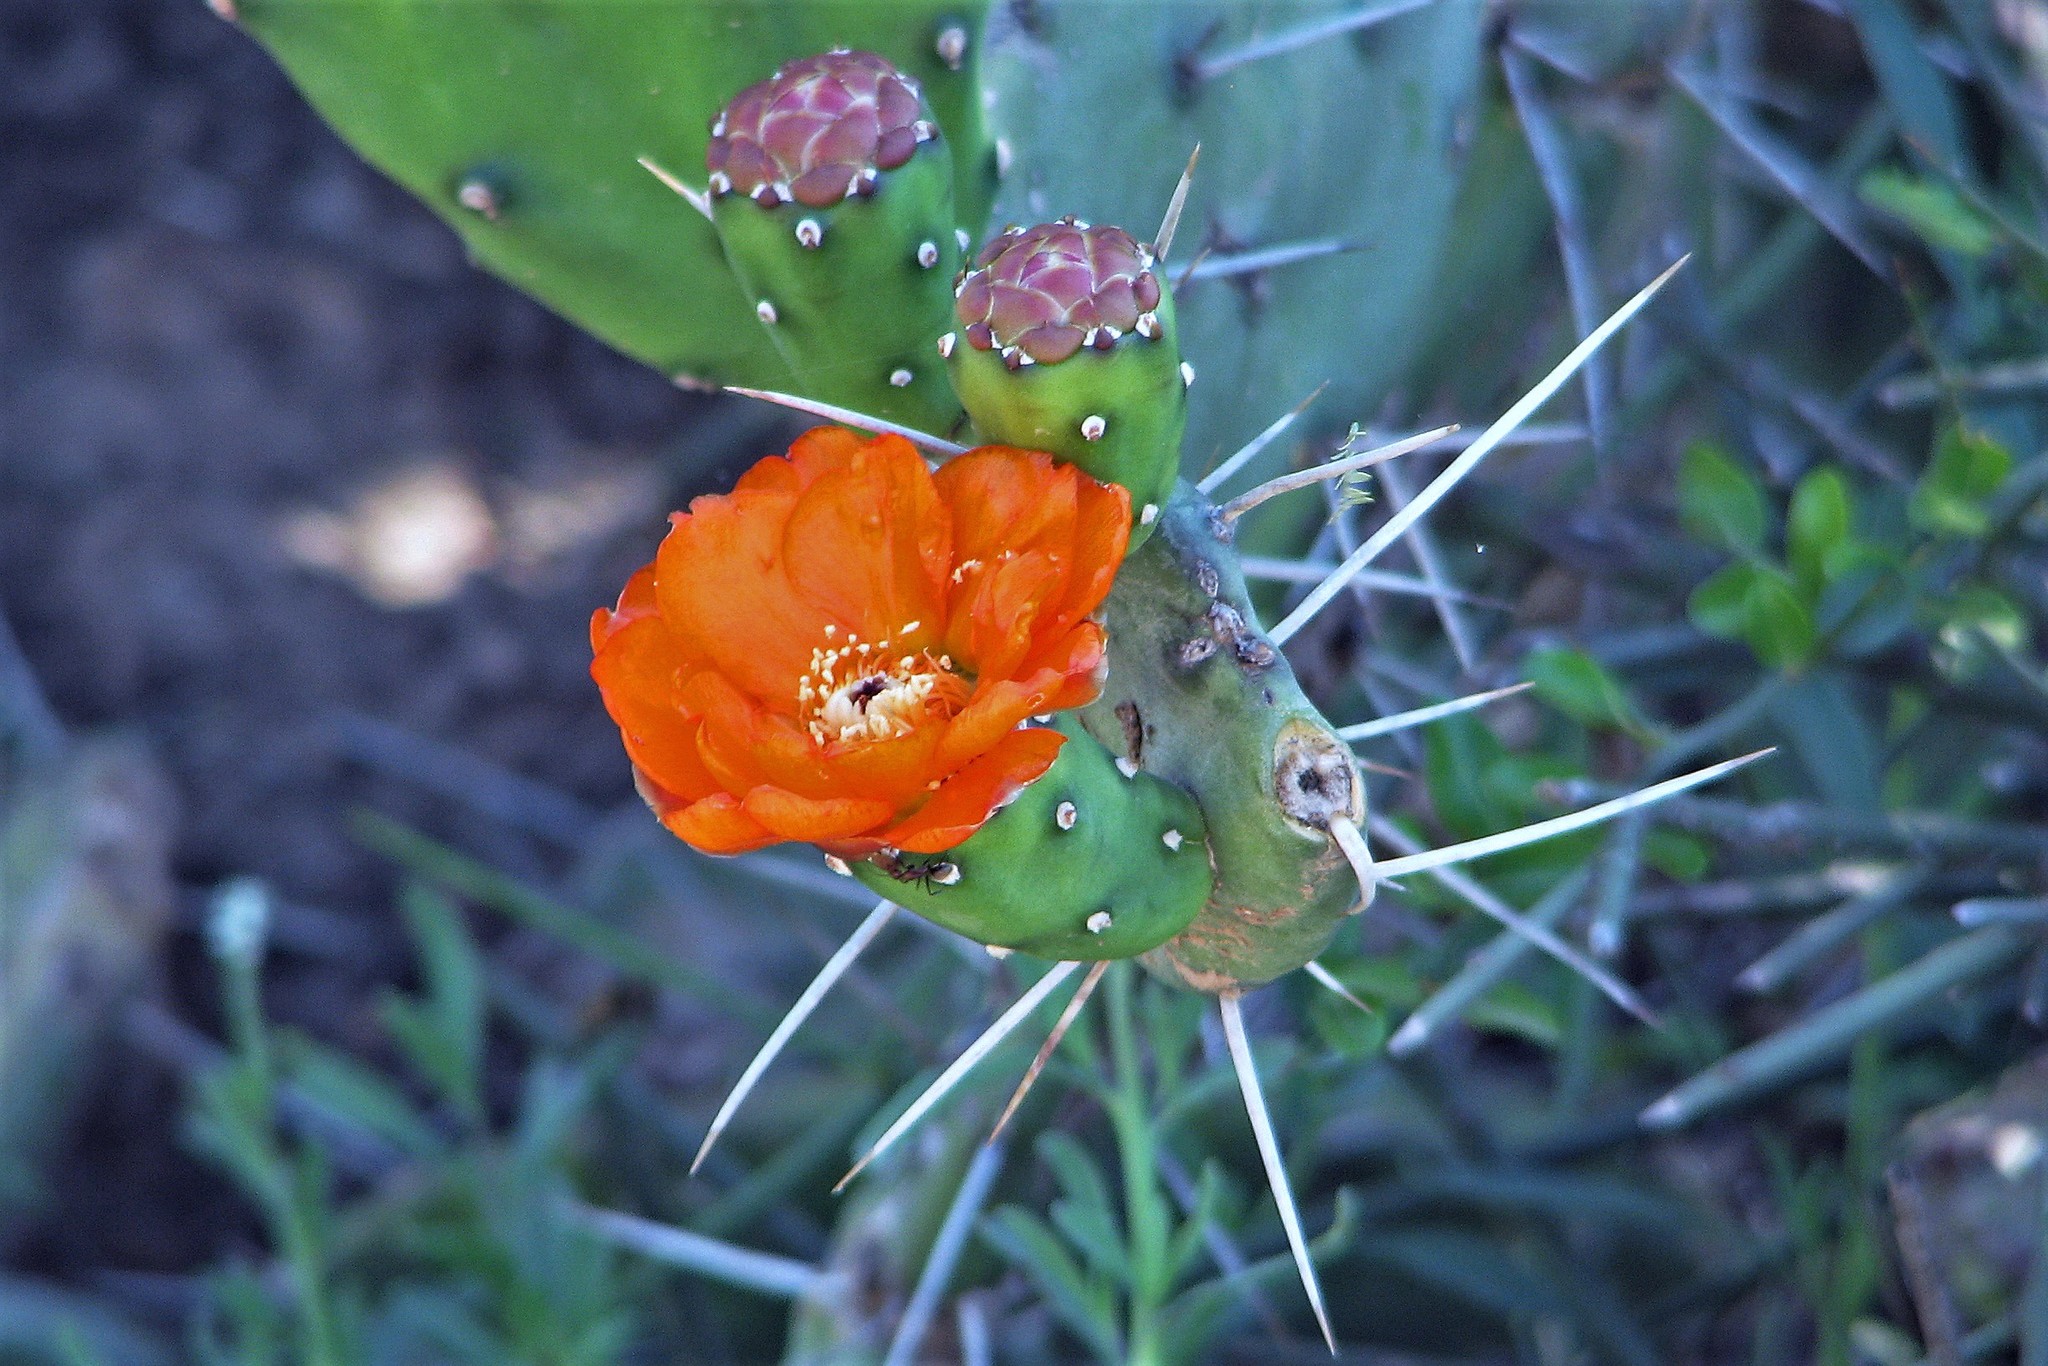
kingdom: Plantae
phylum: Tracheophyta
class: Magnoliopsida
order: Caryophyllales
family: Cactaceae
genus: Opuntia
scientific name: Opuntia quimilo
